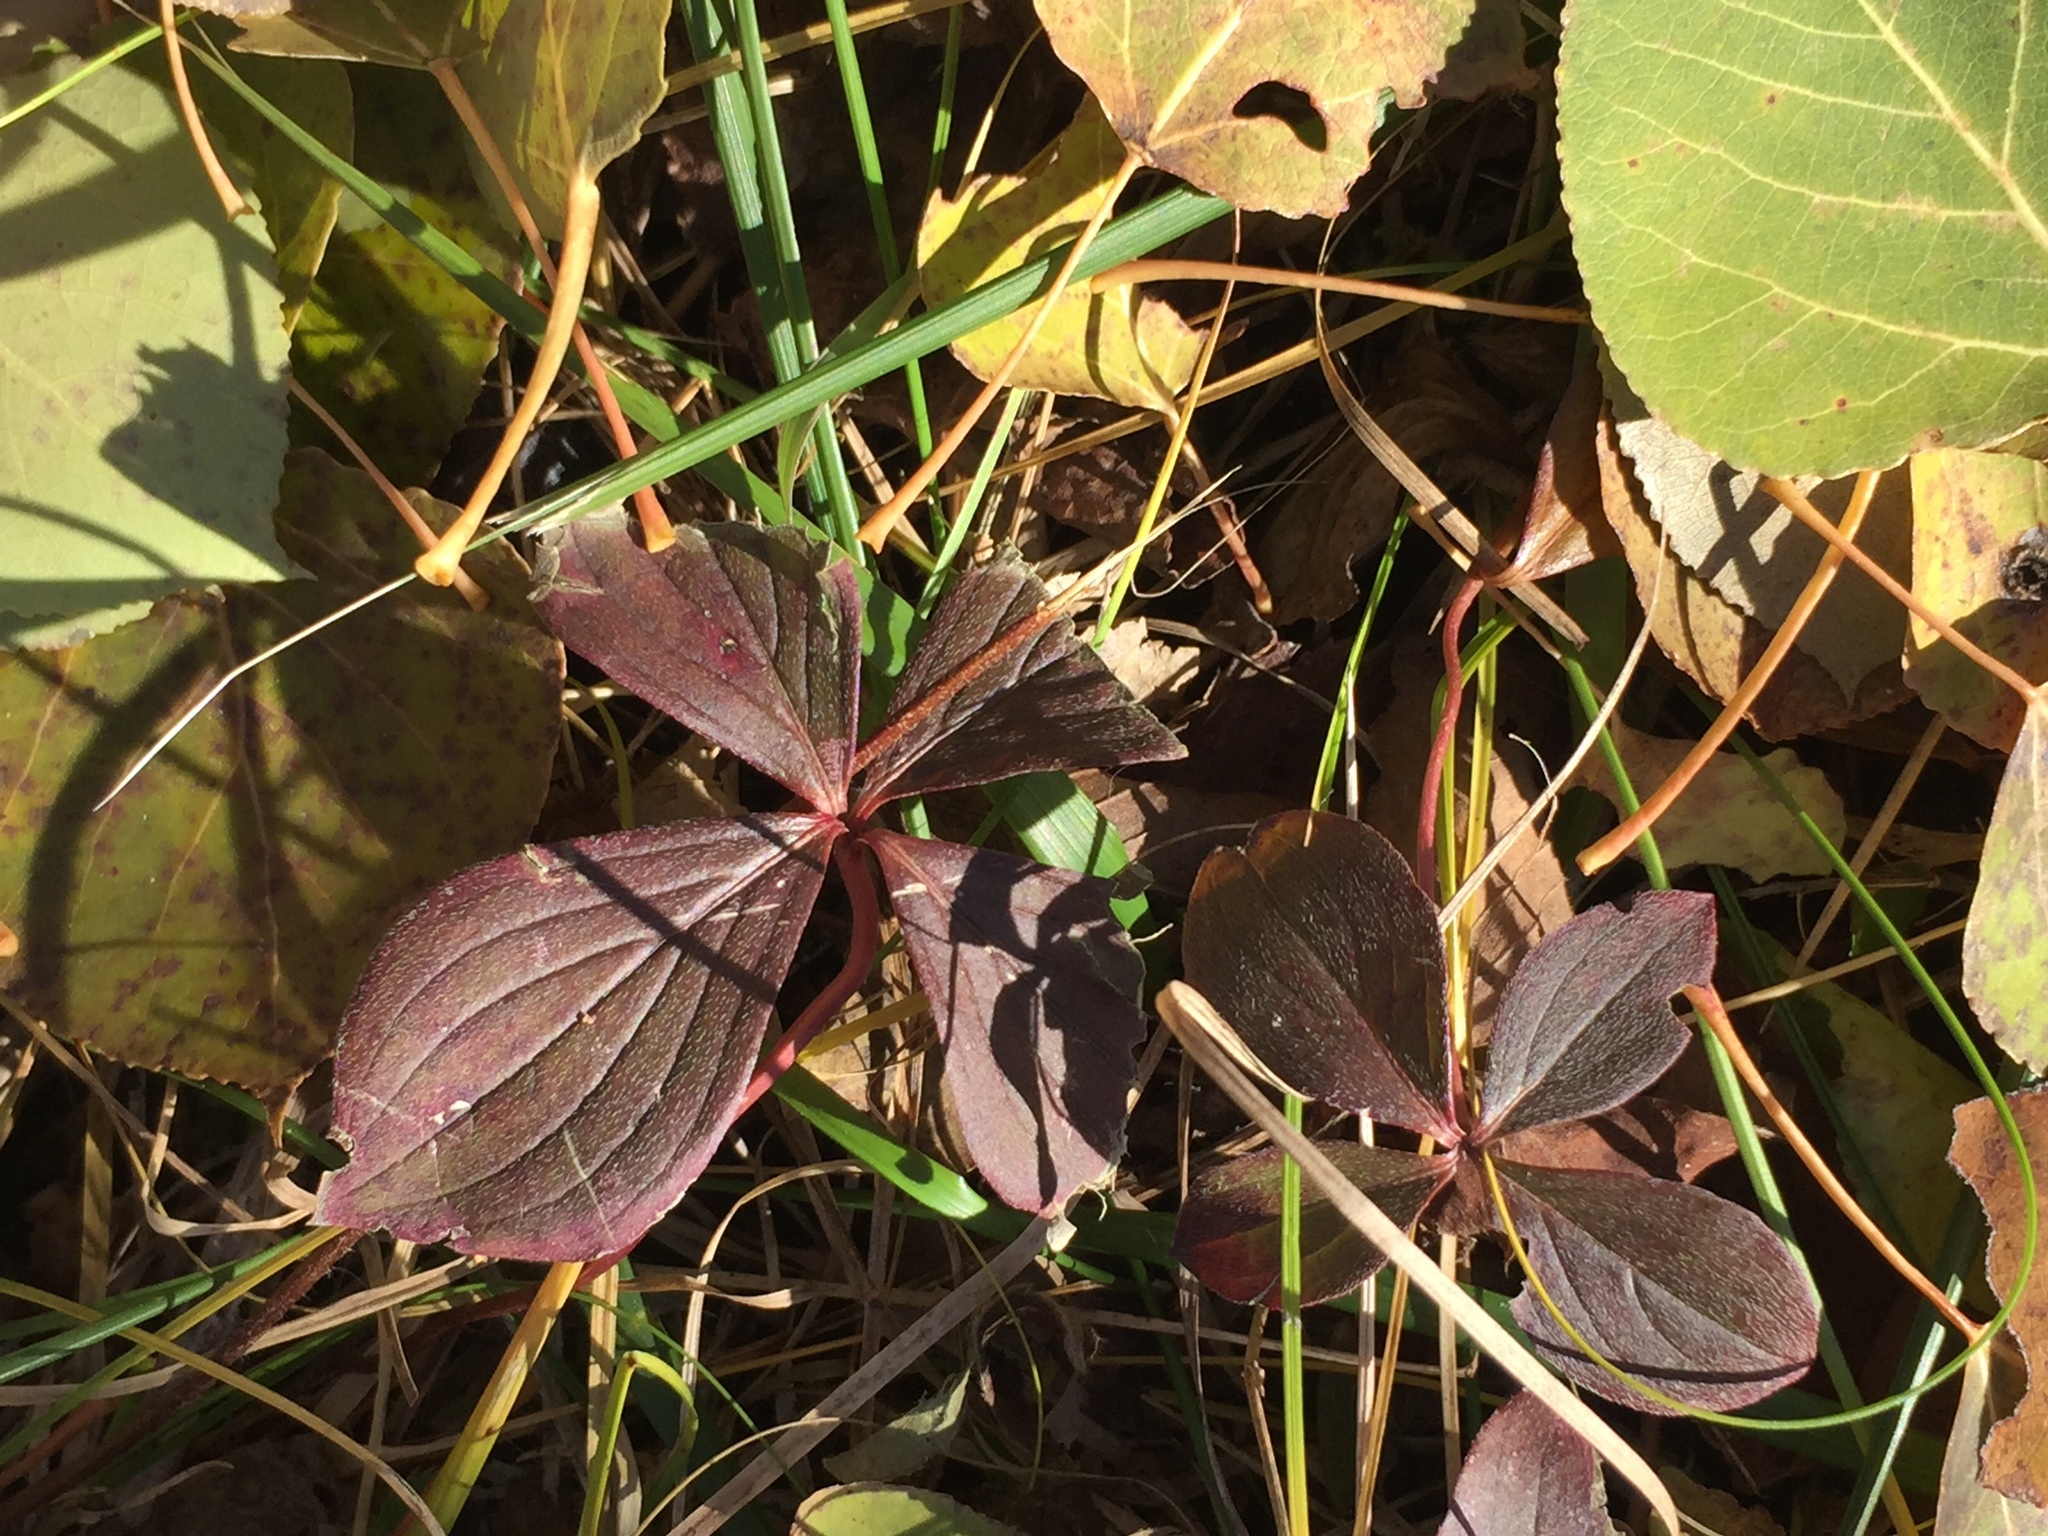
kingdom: Plantae
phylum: Tracheophyta
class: Magnoliopsida
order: Cornales
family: Cornaceae
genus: Cornus
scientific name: Cornus canadensis
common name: Creeping dogwood
